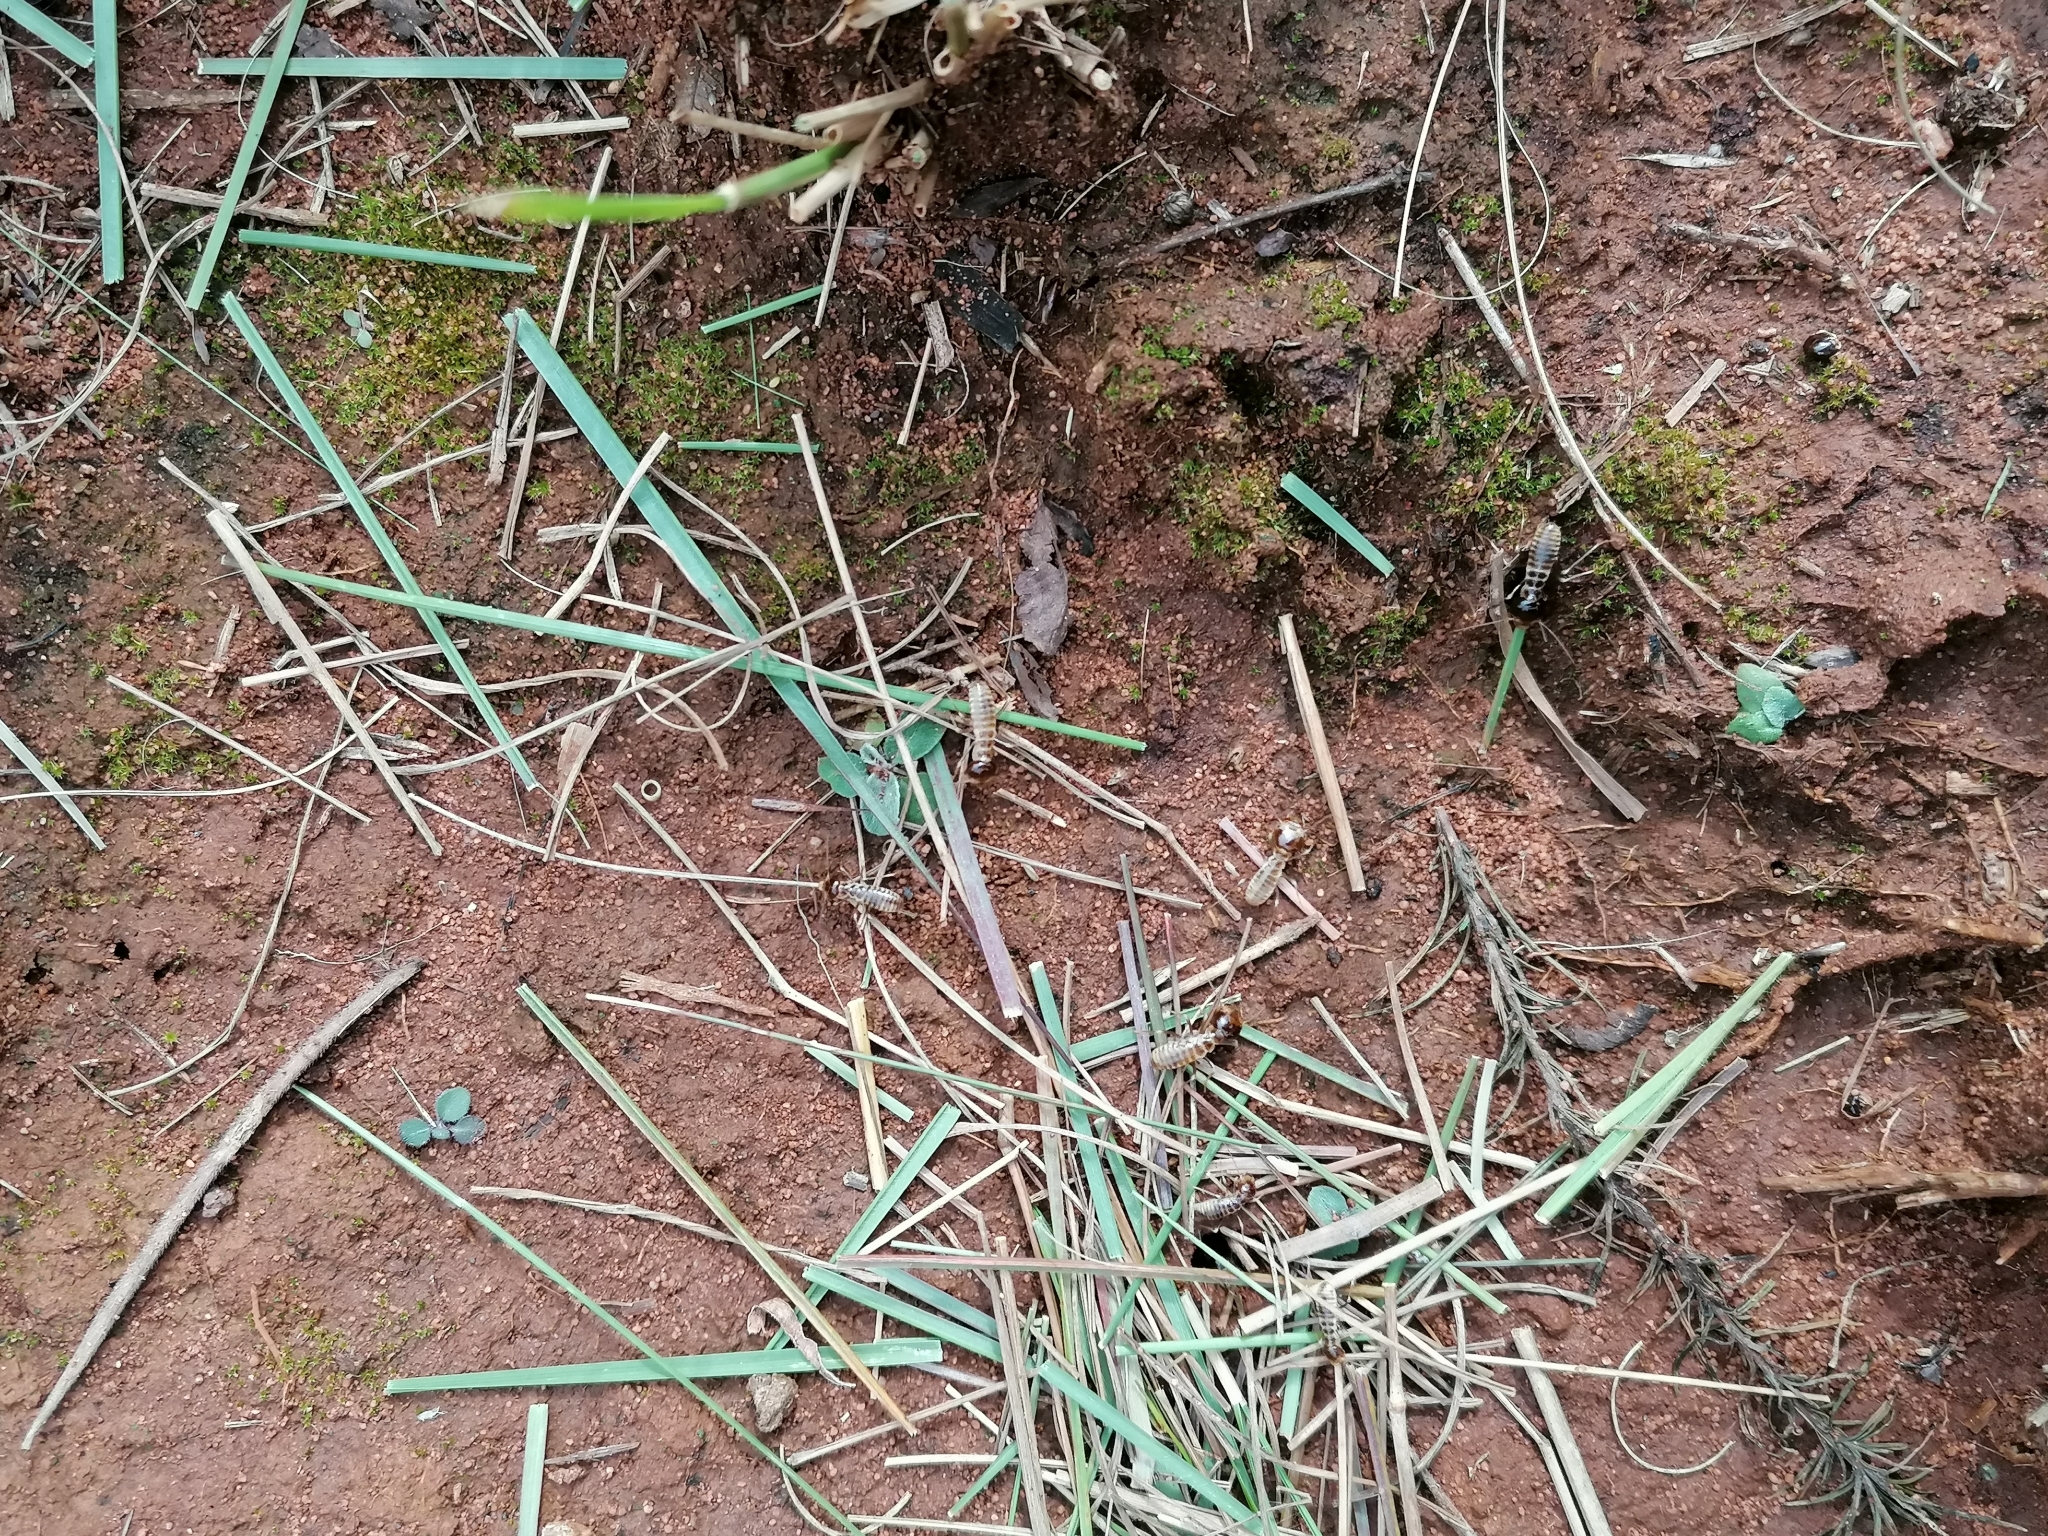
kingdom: Animalia
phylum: Arthropoda
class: Insecta
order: Blattodea
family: Hodotermitidae
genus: Hodotermes
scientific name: Hodotermes mossambicus
